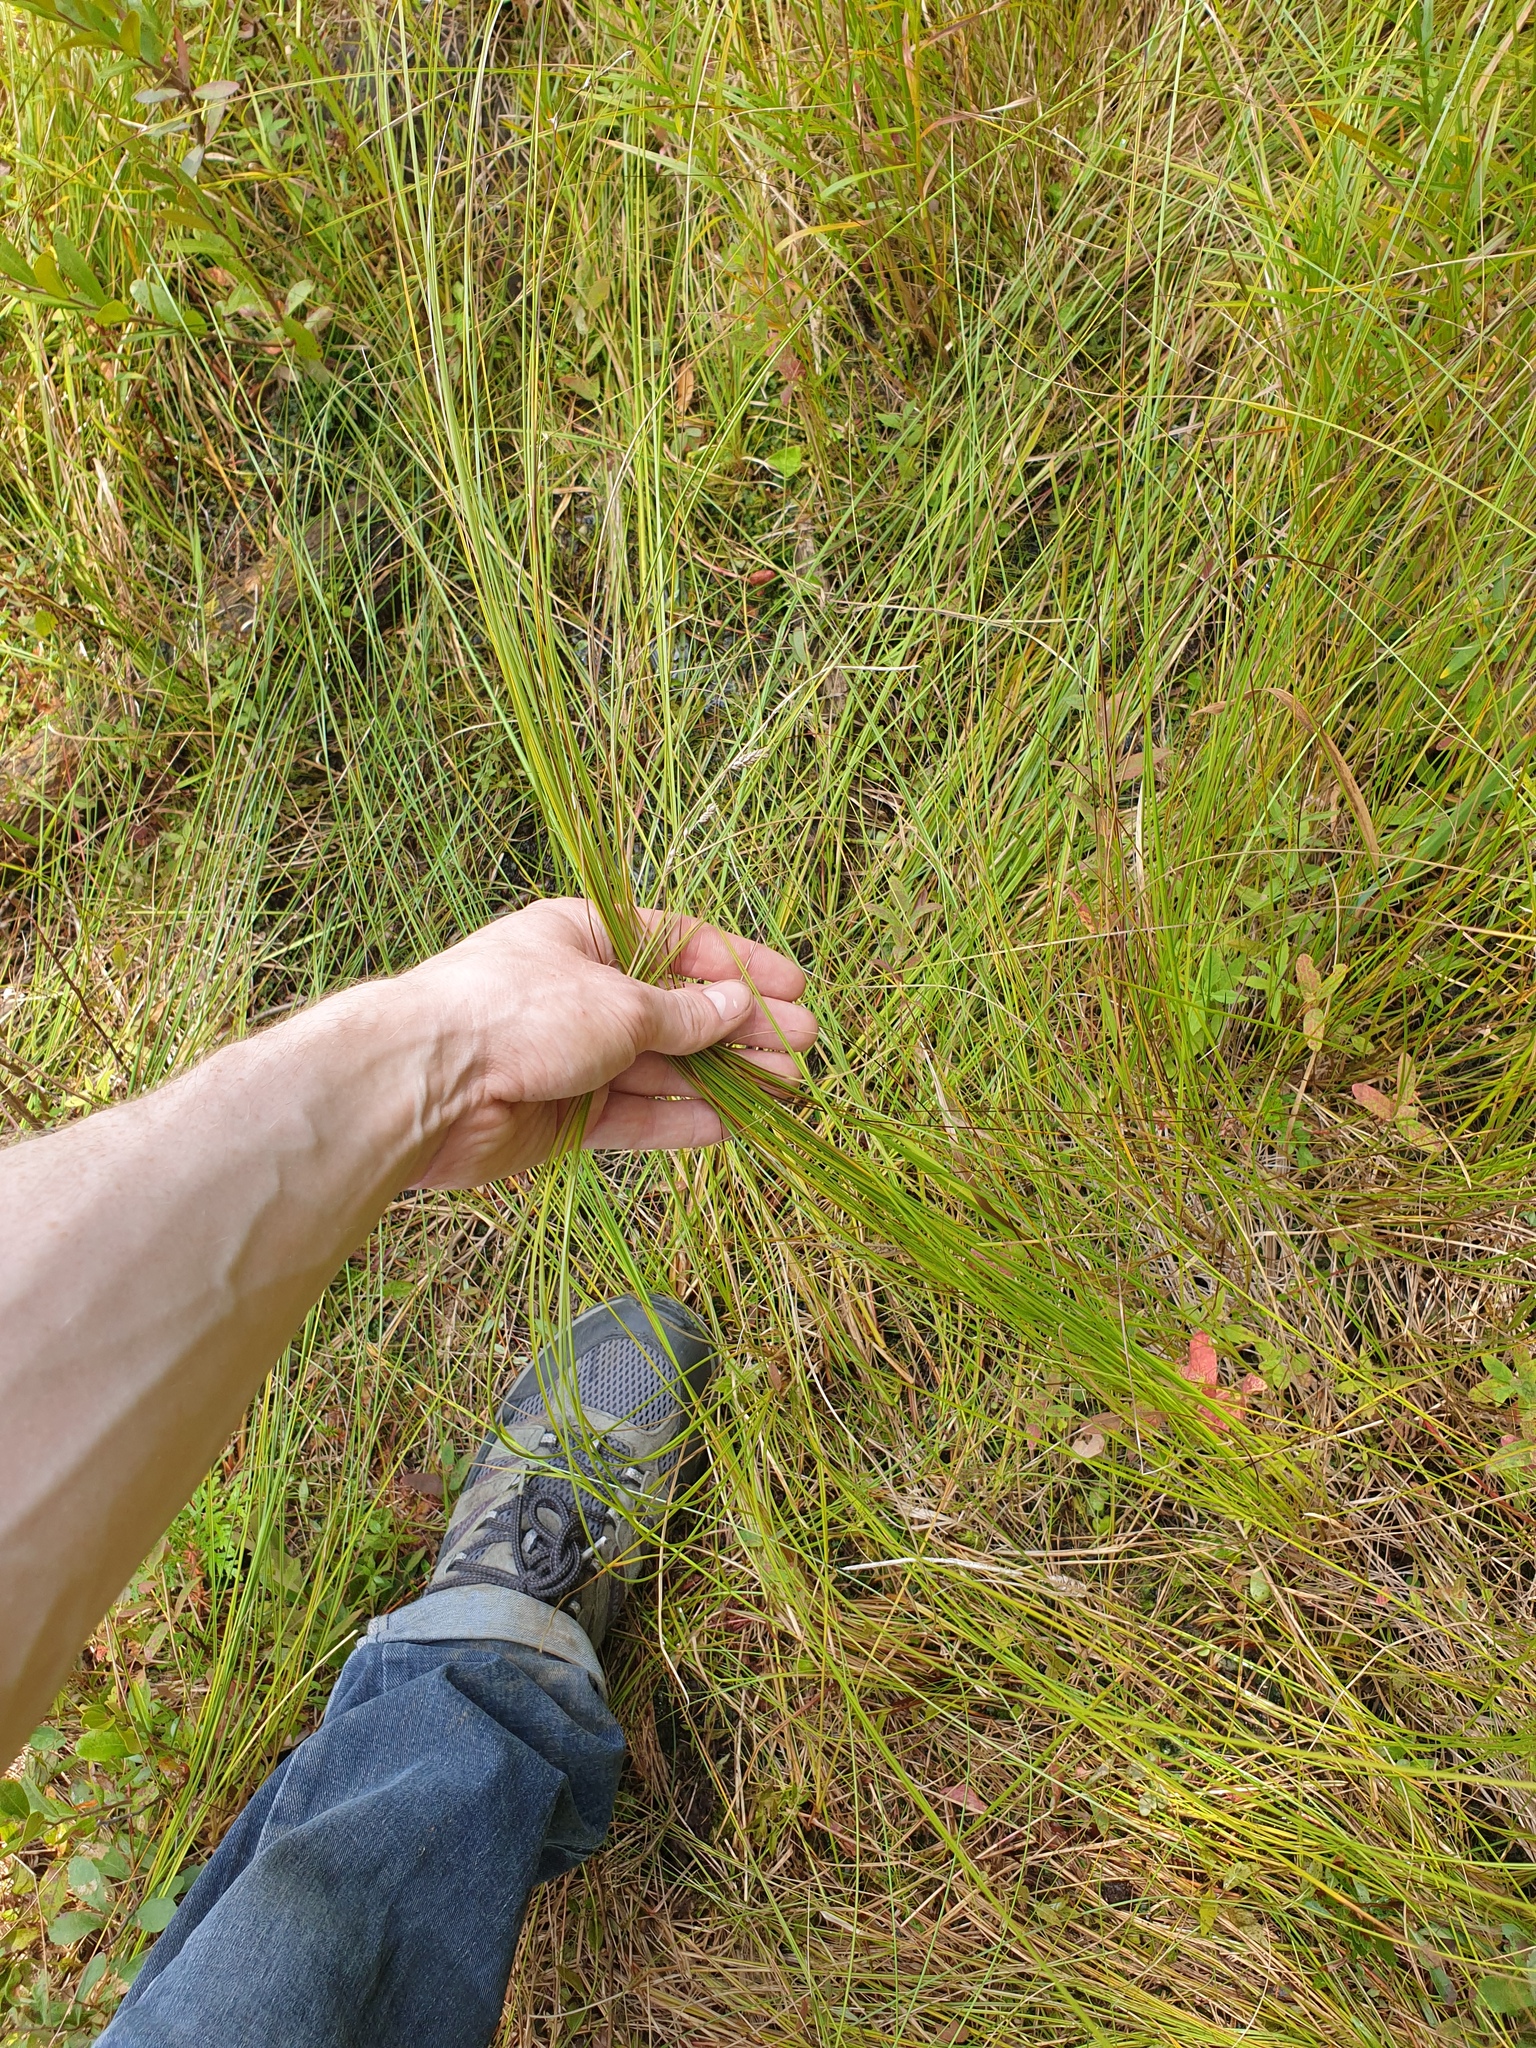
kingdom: Plantae
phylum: Tracheophyta
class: Liliopsida
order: Poales
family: Cyperaceae
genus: Carex
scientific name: Carex pellita
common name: Woolly sedge
